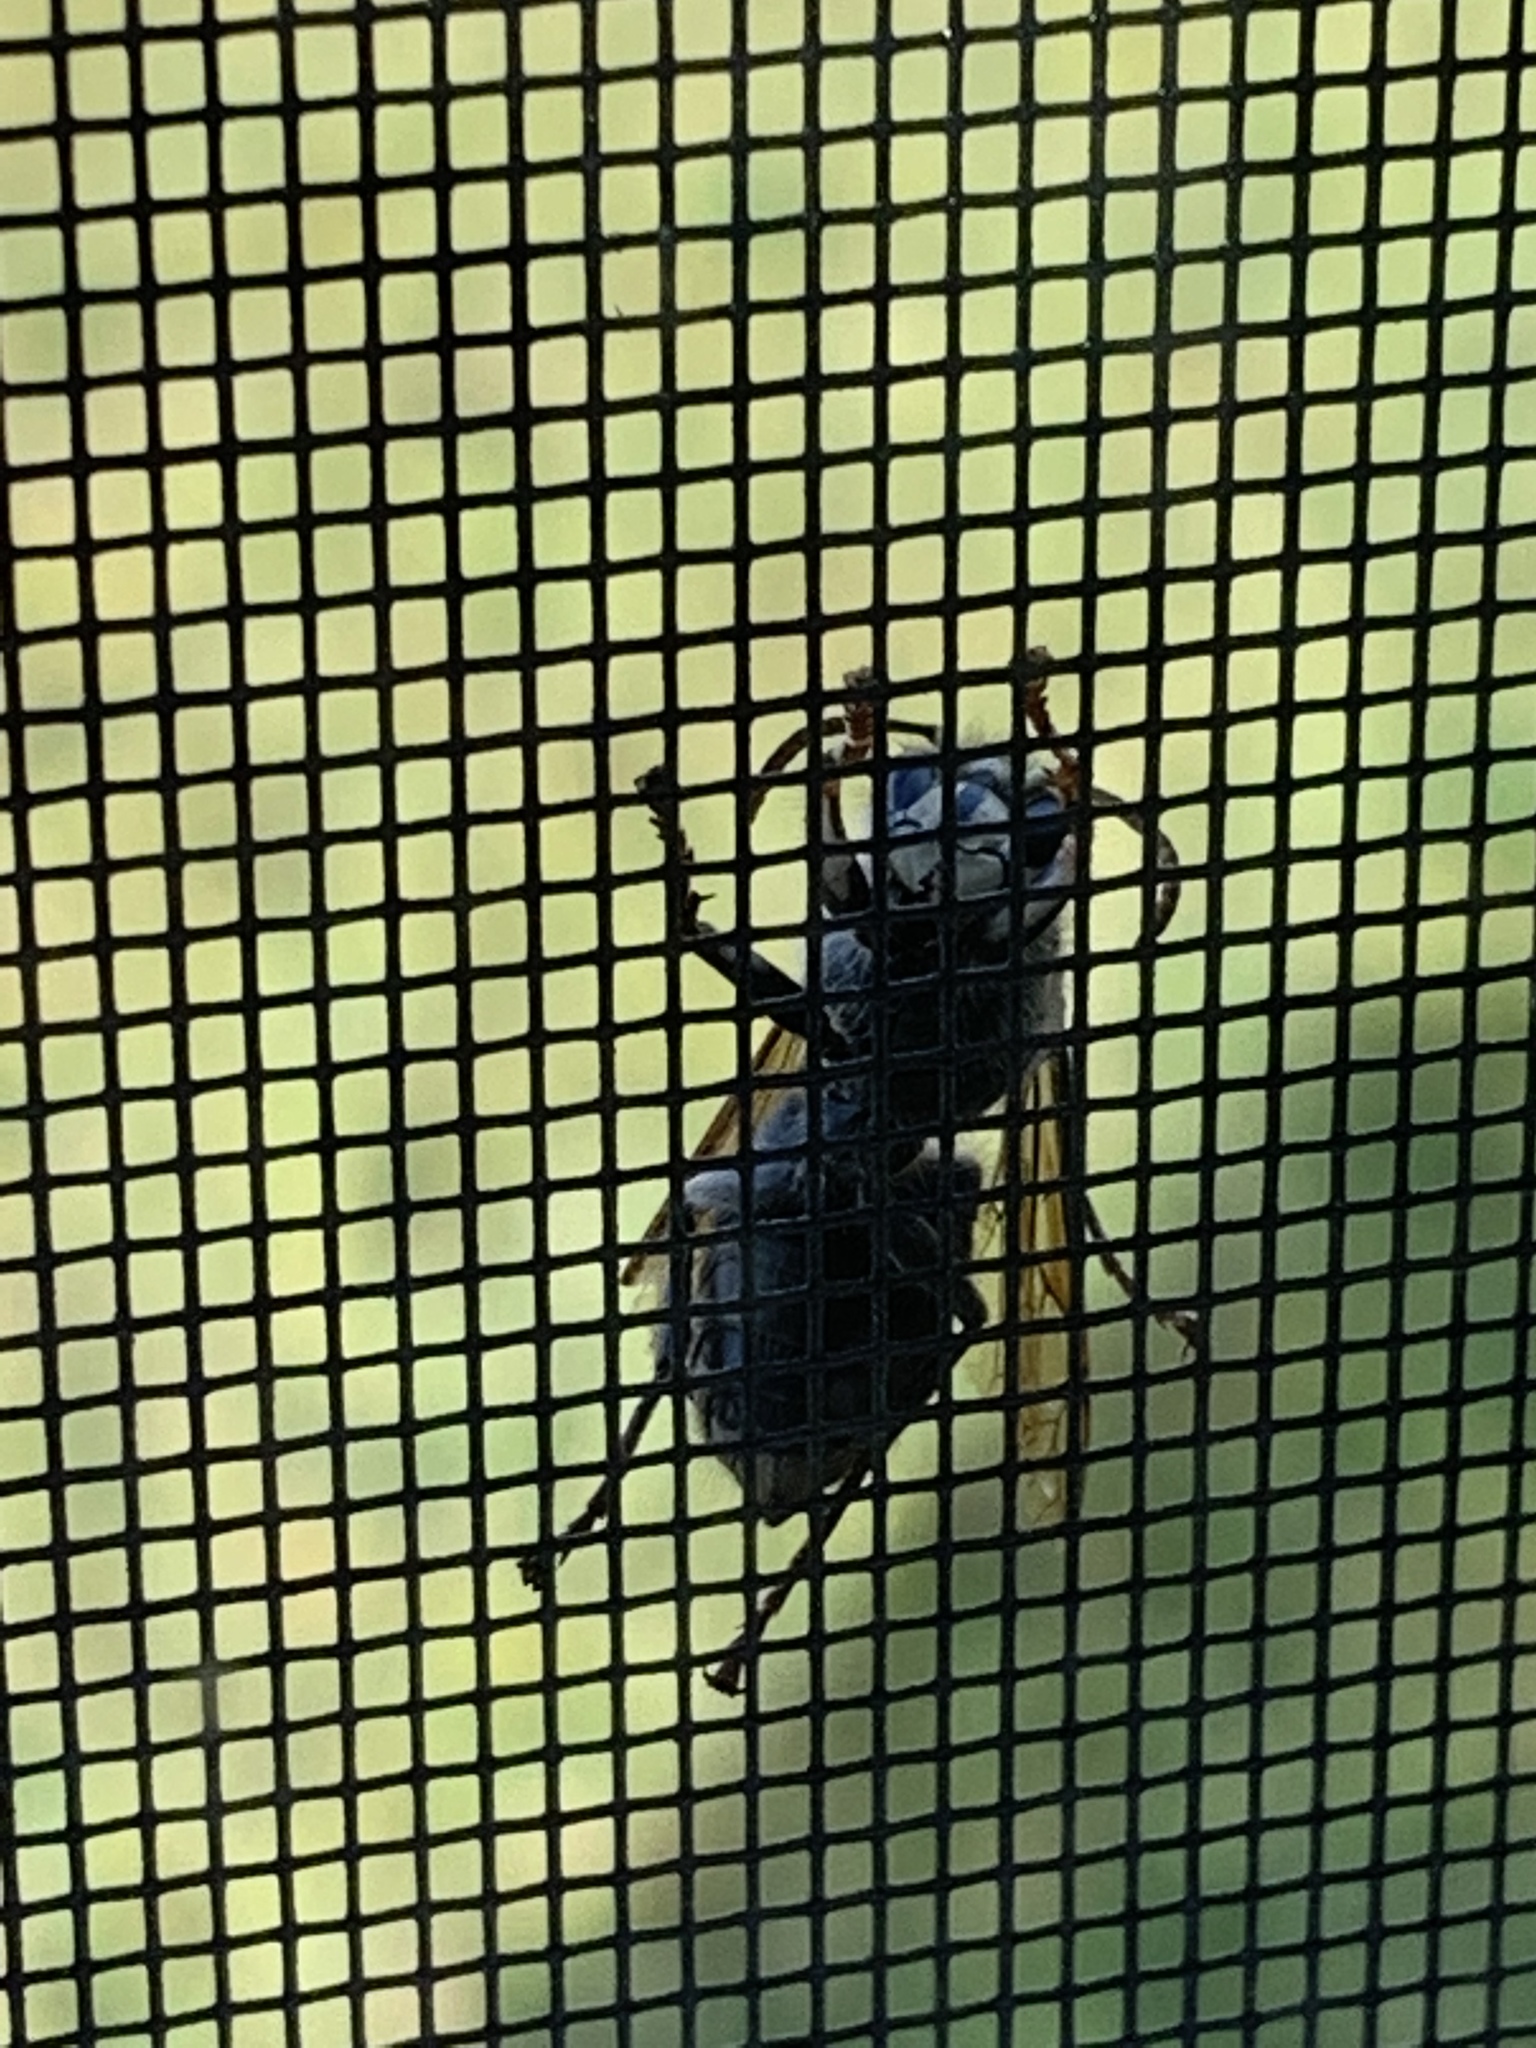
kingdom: Animalia
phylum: Arthropoda
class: Insecta
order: Hymenoptera
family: Vespidae
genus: Dolichovespula
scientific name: Dolichovespula maculata
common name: Bald-faced hornet
